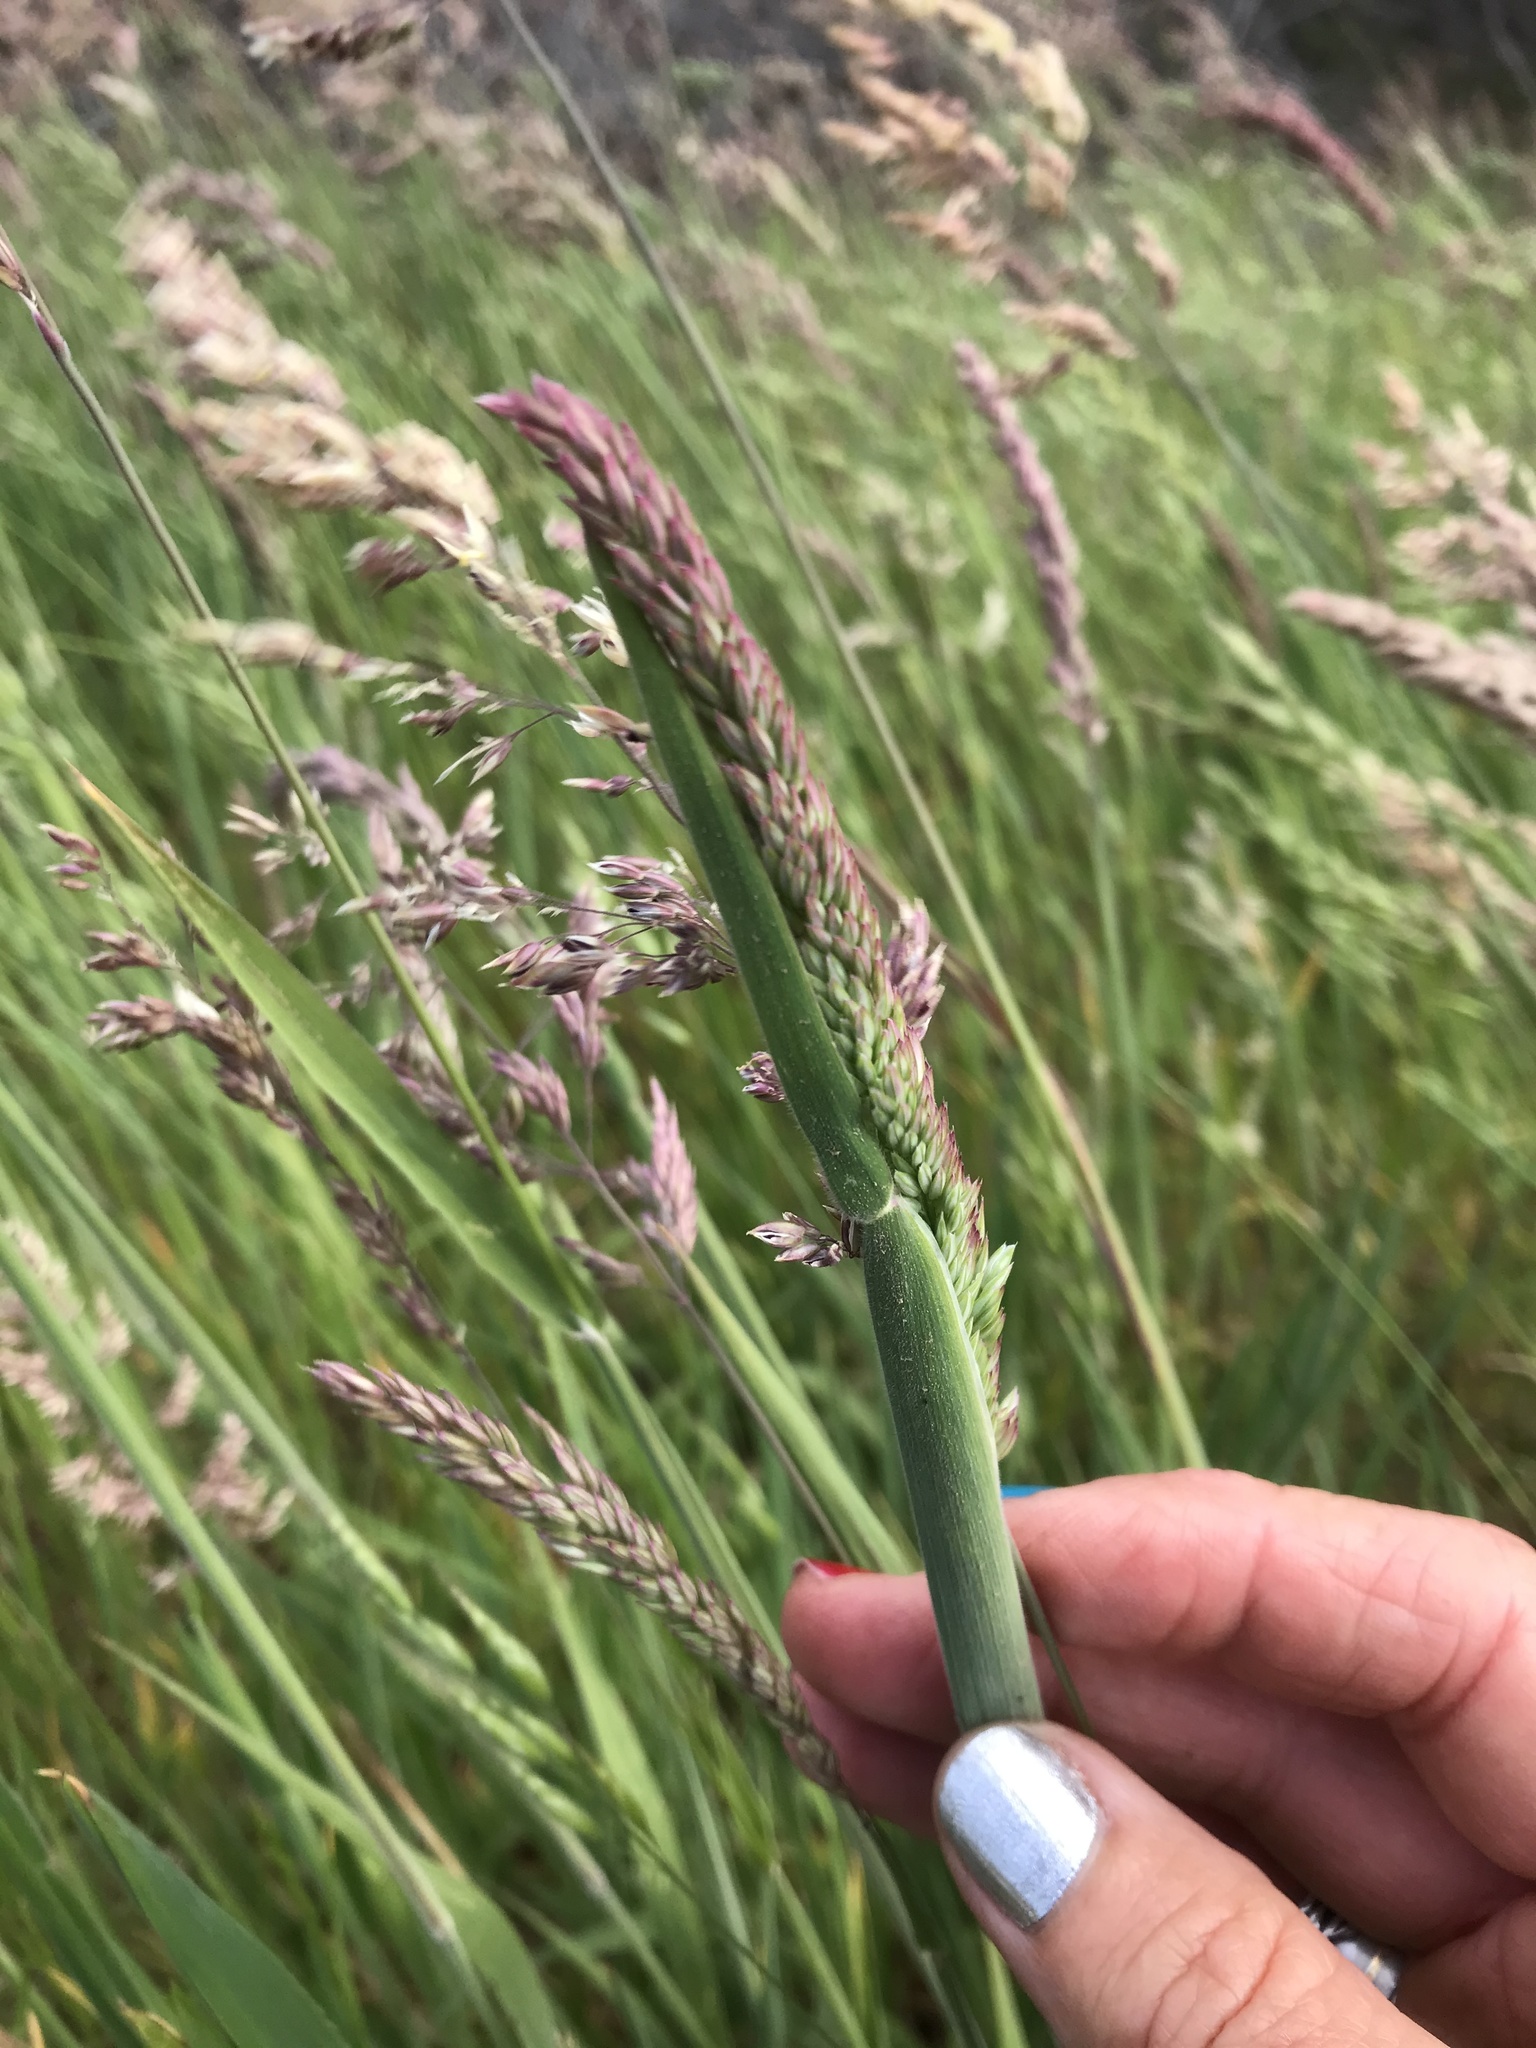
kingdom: Plantae
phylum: Tracheophyta
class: Liliopsida
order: Poales
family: Poaceae
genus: Holcus
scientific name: Holcus lanatus
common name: Yorkshire-fog
